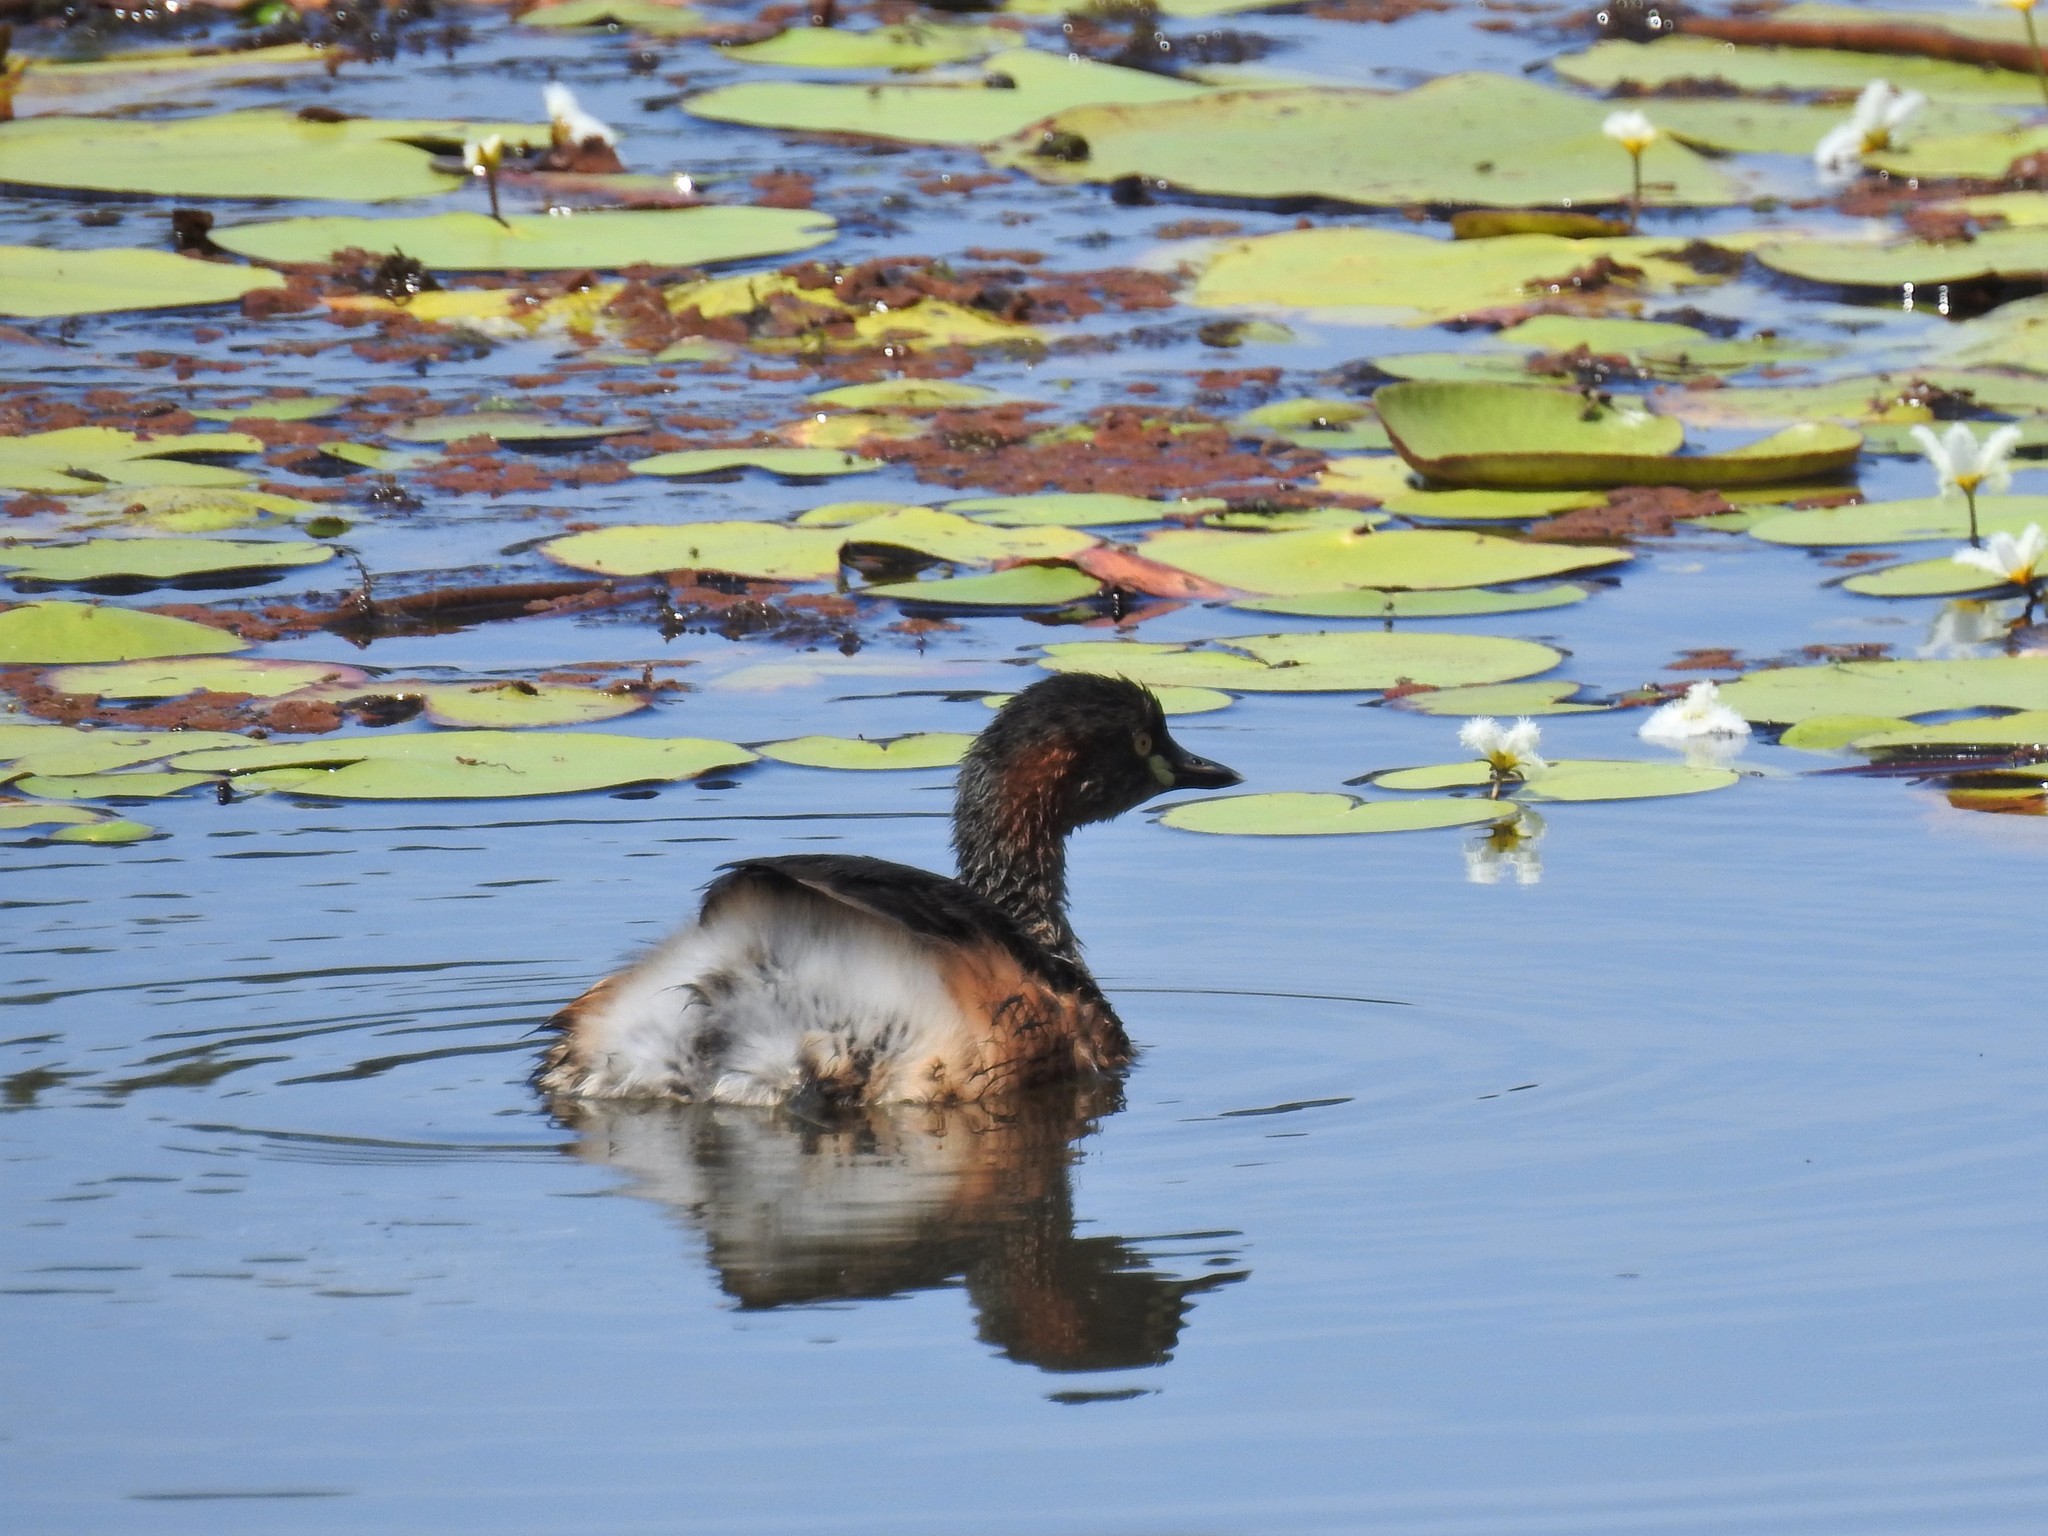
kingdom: Animalia
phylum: Chordata
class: Aves
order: Podicipediformes
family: Podicipedidae
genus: Tachybaptus
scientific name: Tachybaptus novaehollandiae
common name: Australasian grebe
